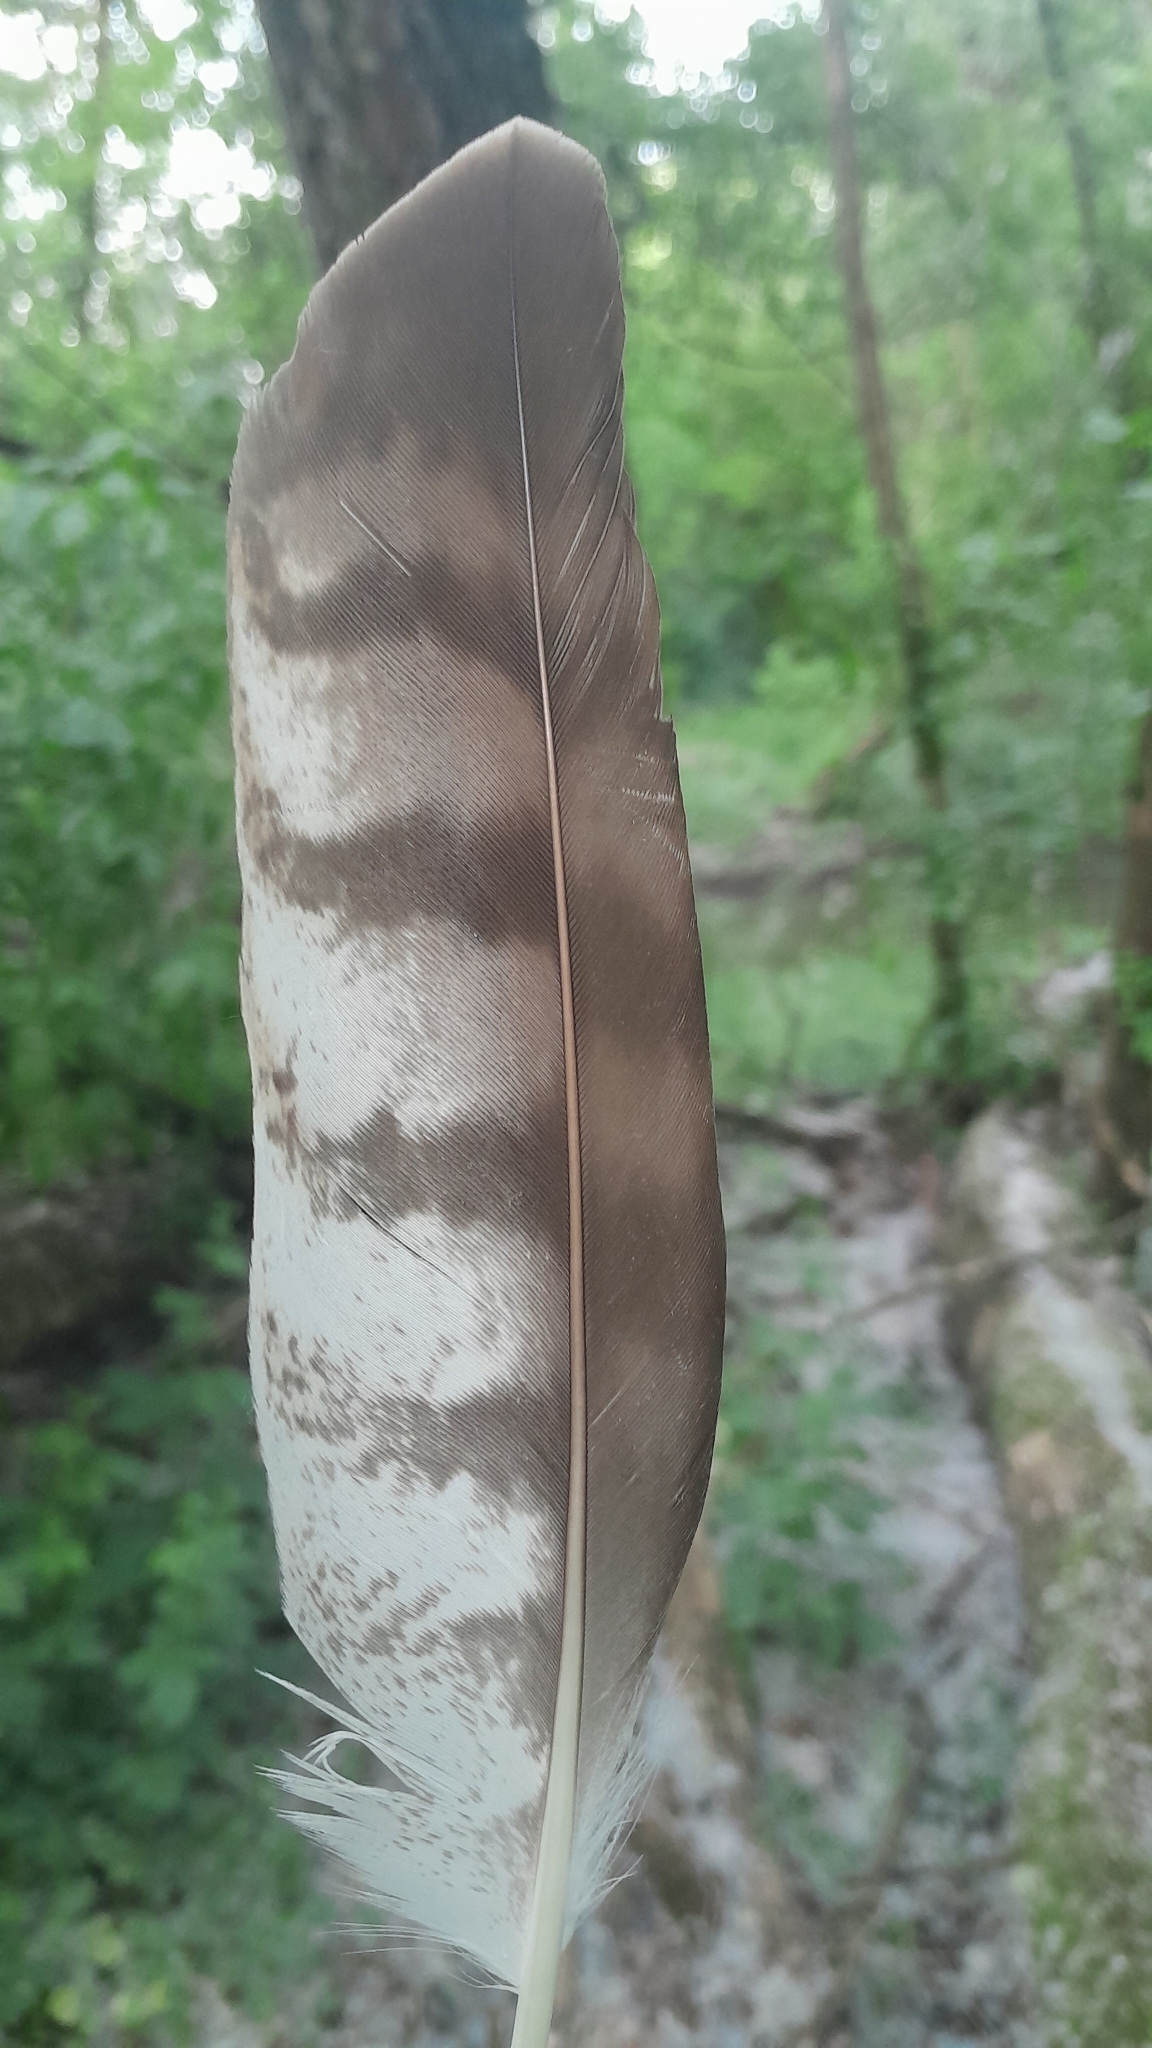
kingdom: Animalia
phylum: Chordata
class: Aves
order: Accipitriformes
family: Accipitridae
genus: Buteo
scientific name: Buteo buteo
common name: Common buzzard
